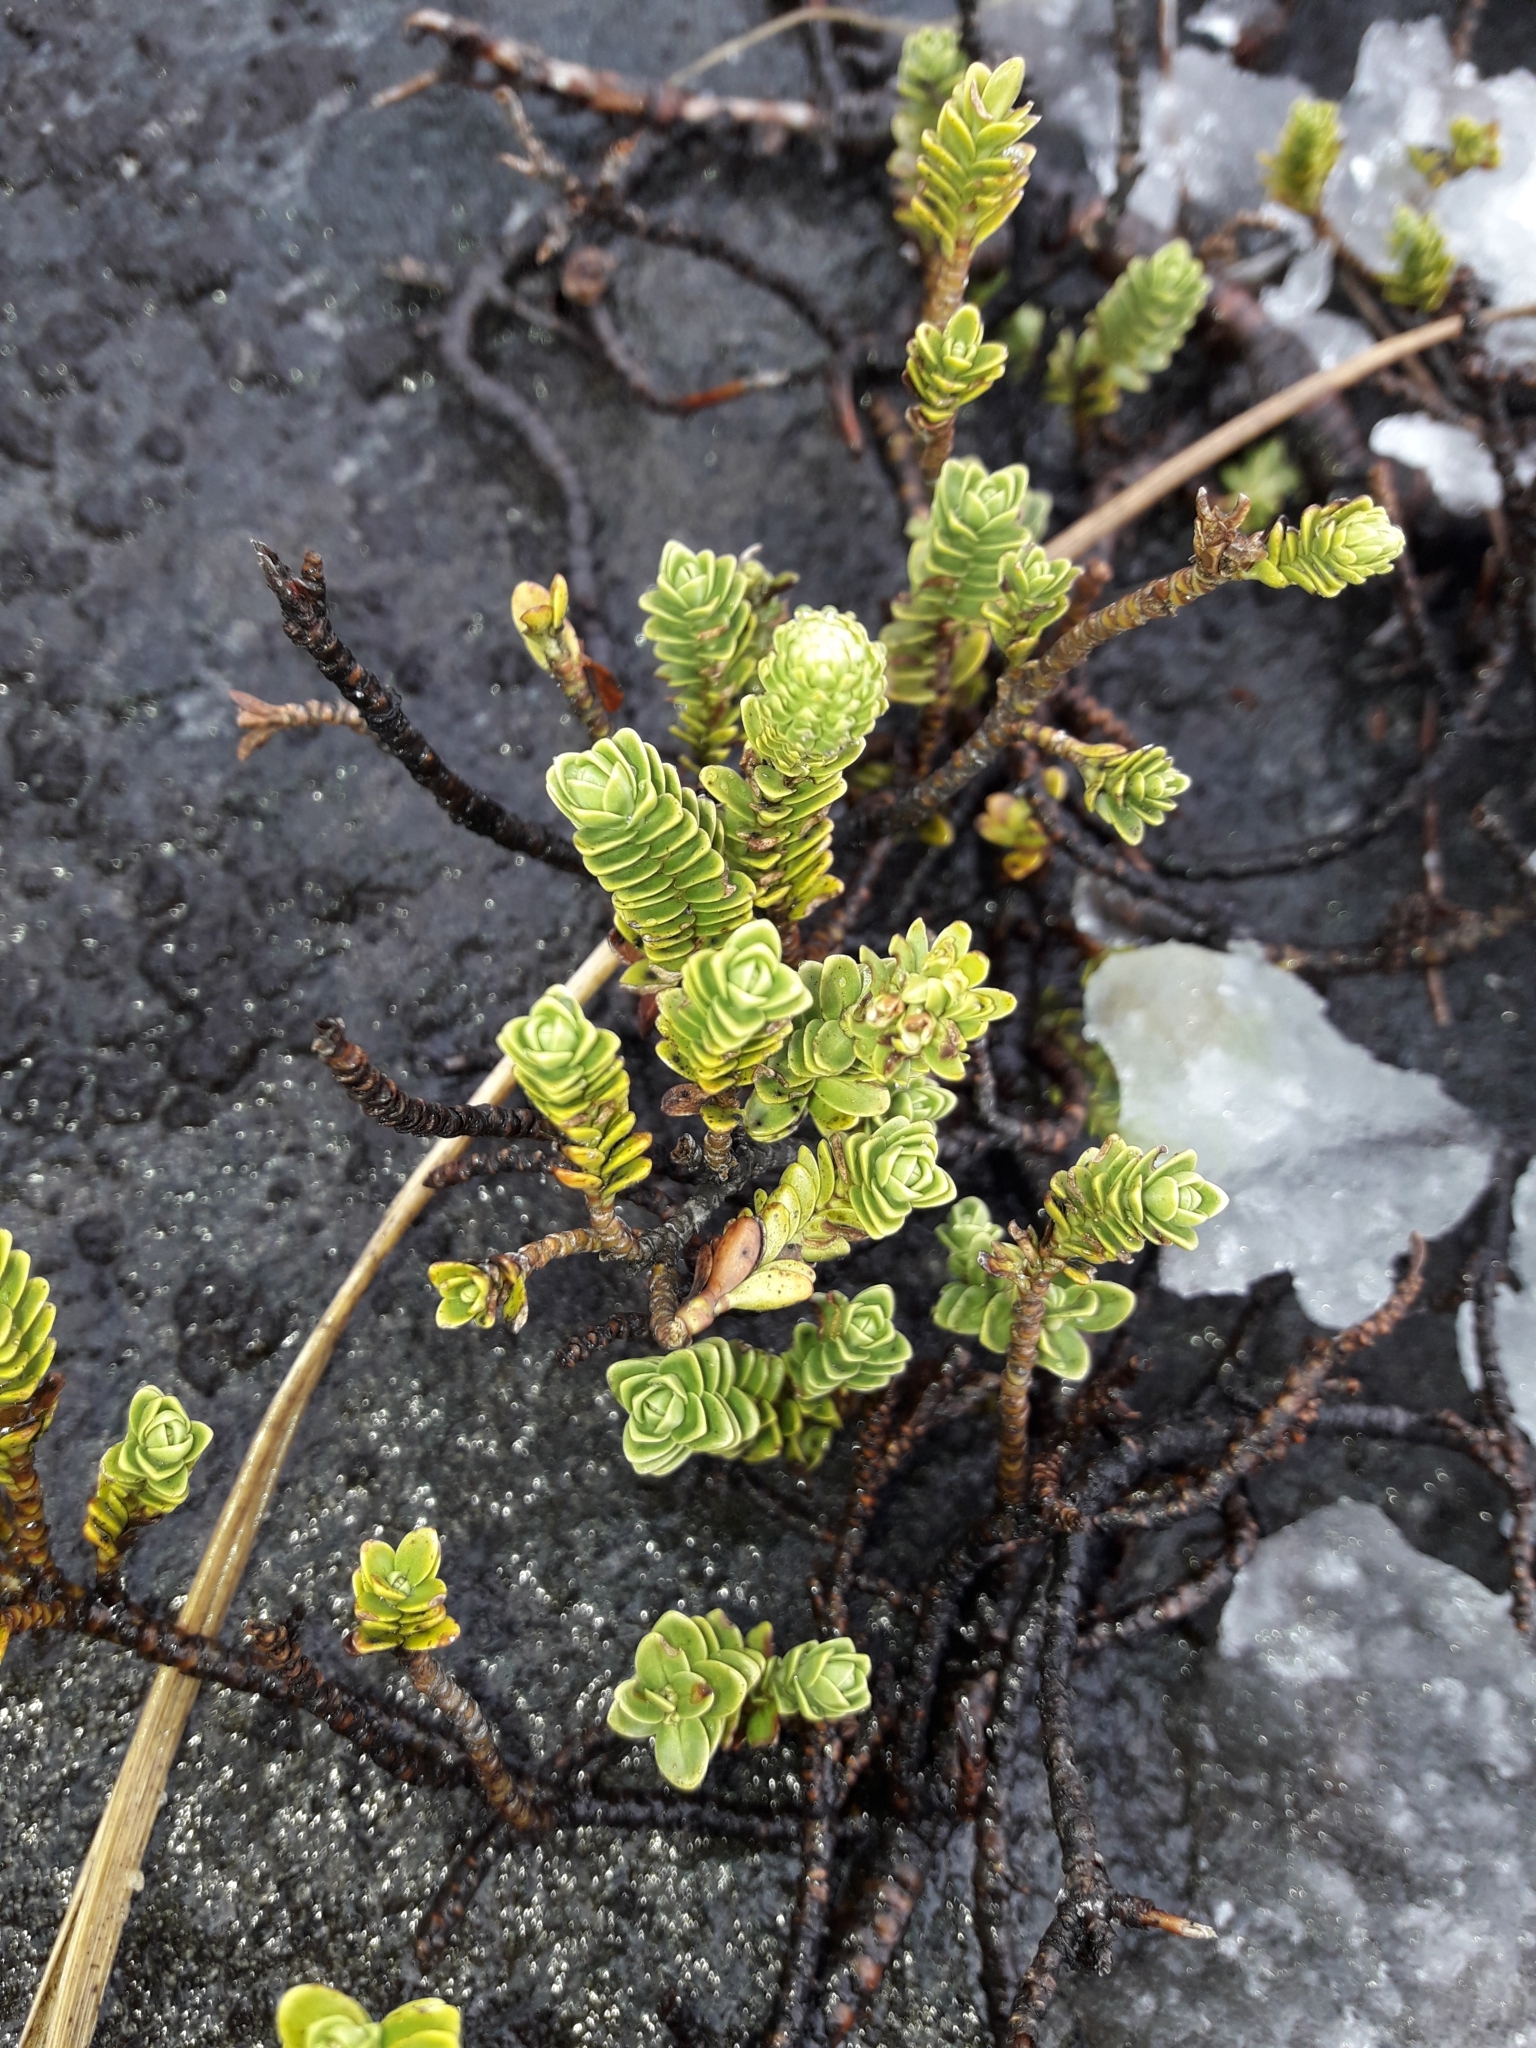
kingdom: Plantae
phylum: Tracheophyta
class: Magnoliopsida
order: Lamiales
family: Plantaginaceae
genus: Veronica
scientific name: Veronica murrellii
